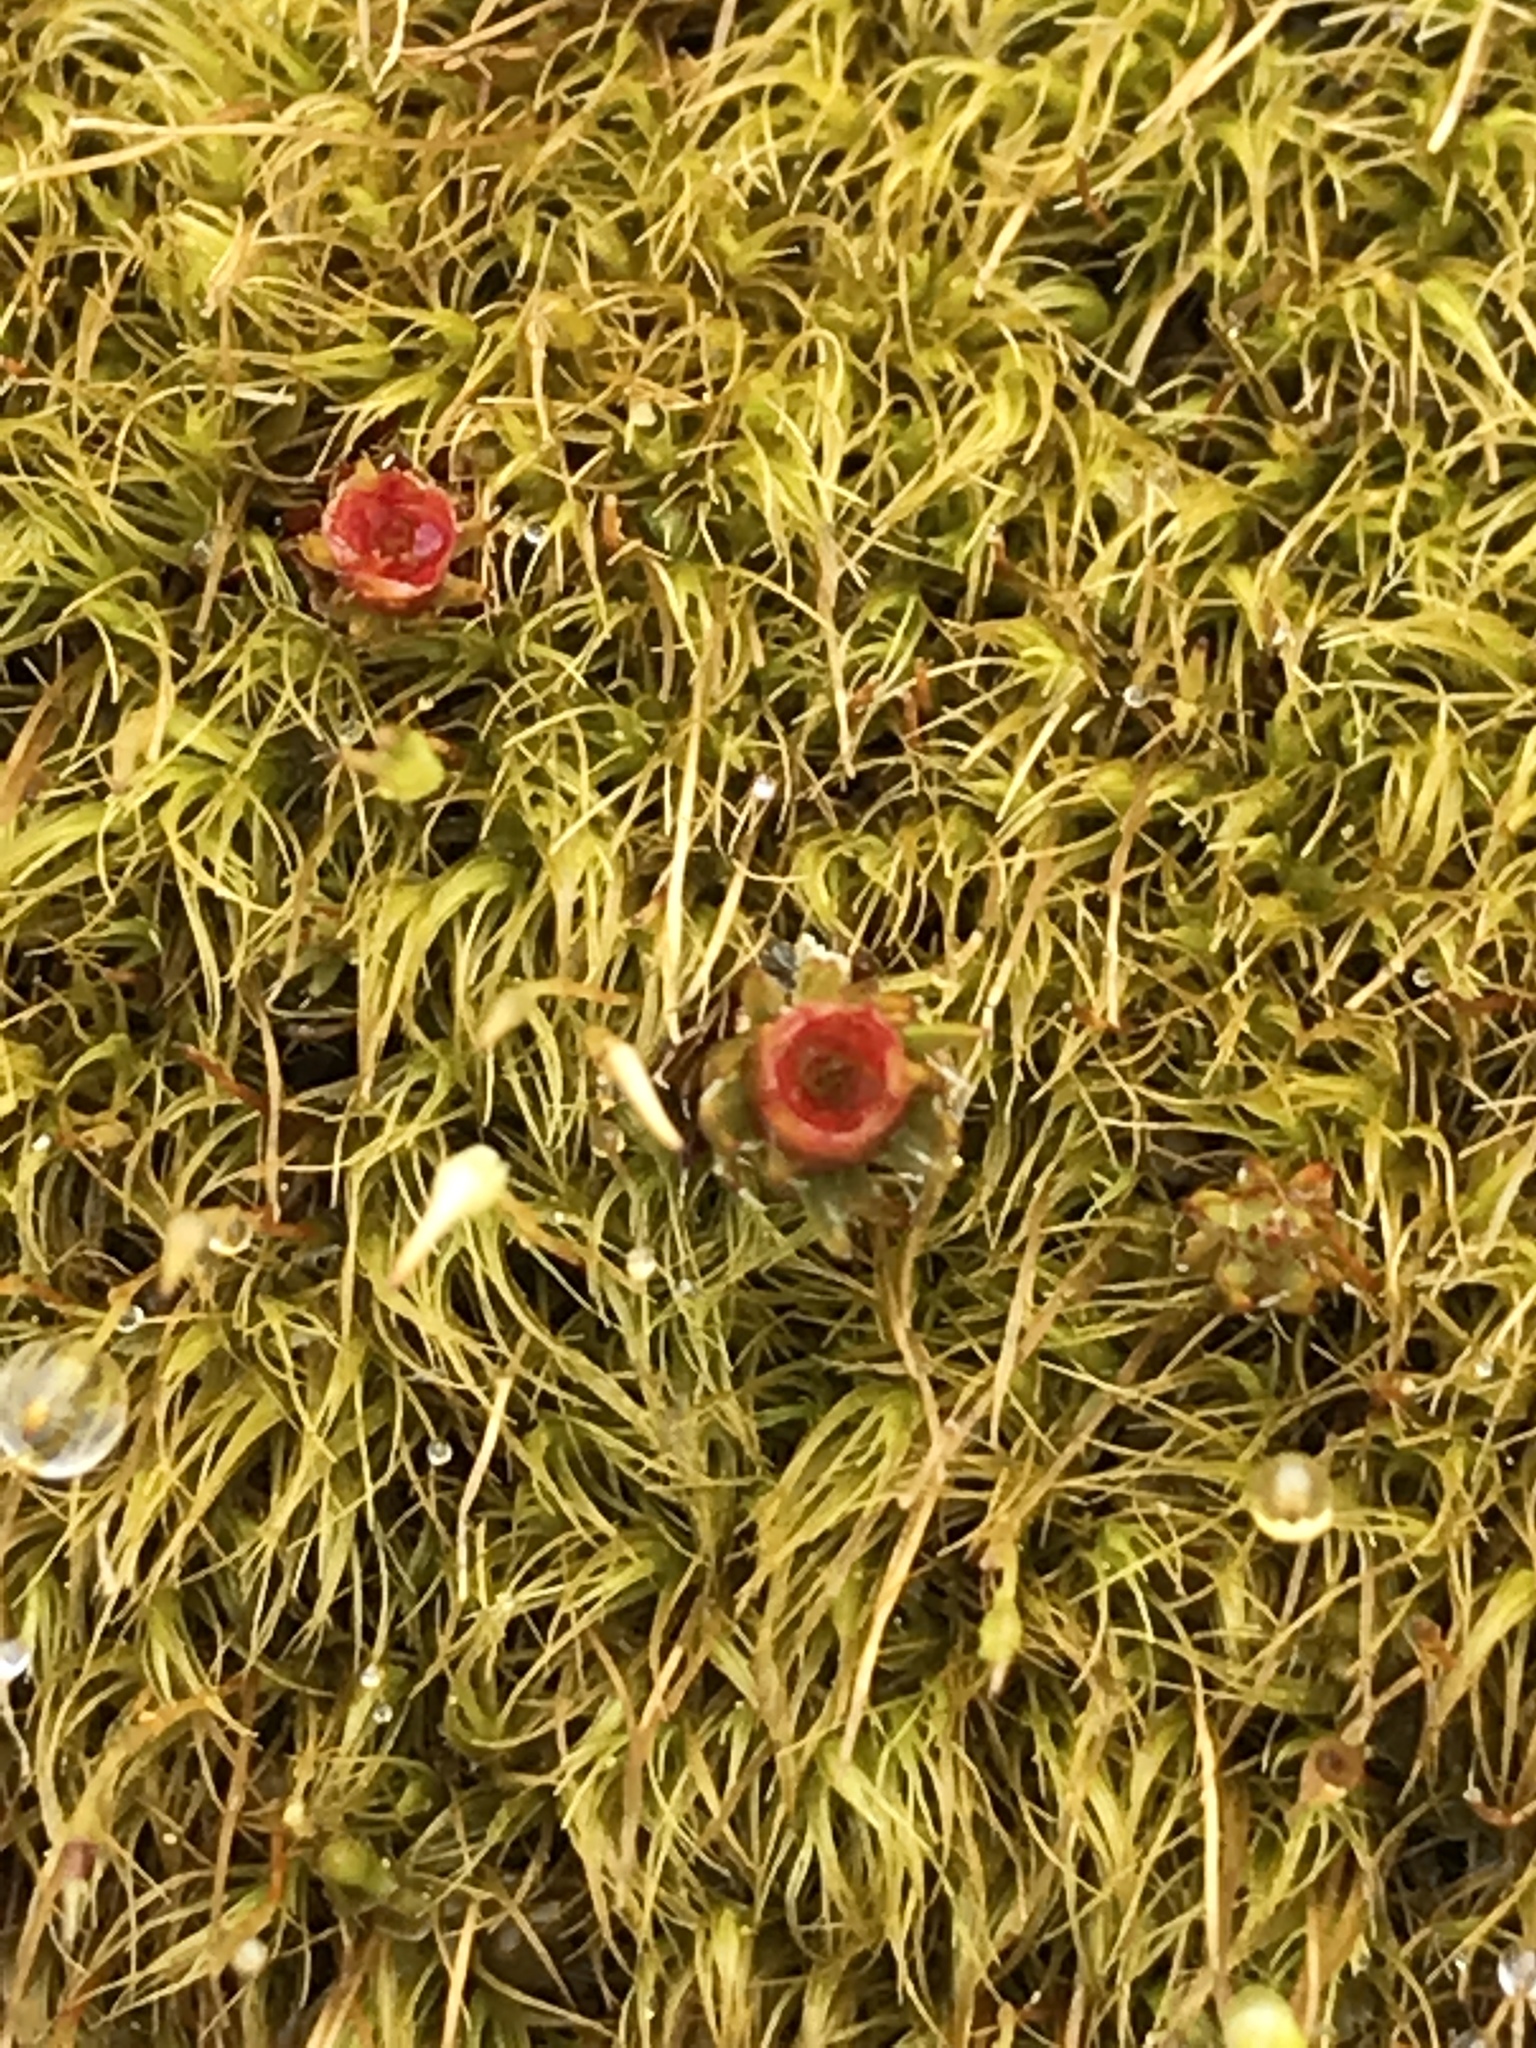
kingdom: Plantae
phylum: Bryophyta
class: Polytrichopsida
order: Polytrichales
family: Polytrichaceae
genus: Polytrichum
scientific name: Polytrichum piliferum
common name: Bristly haircap
